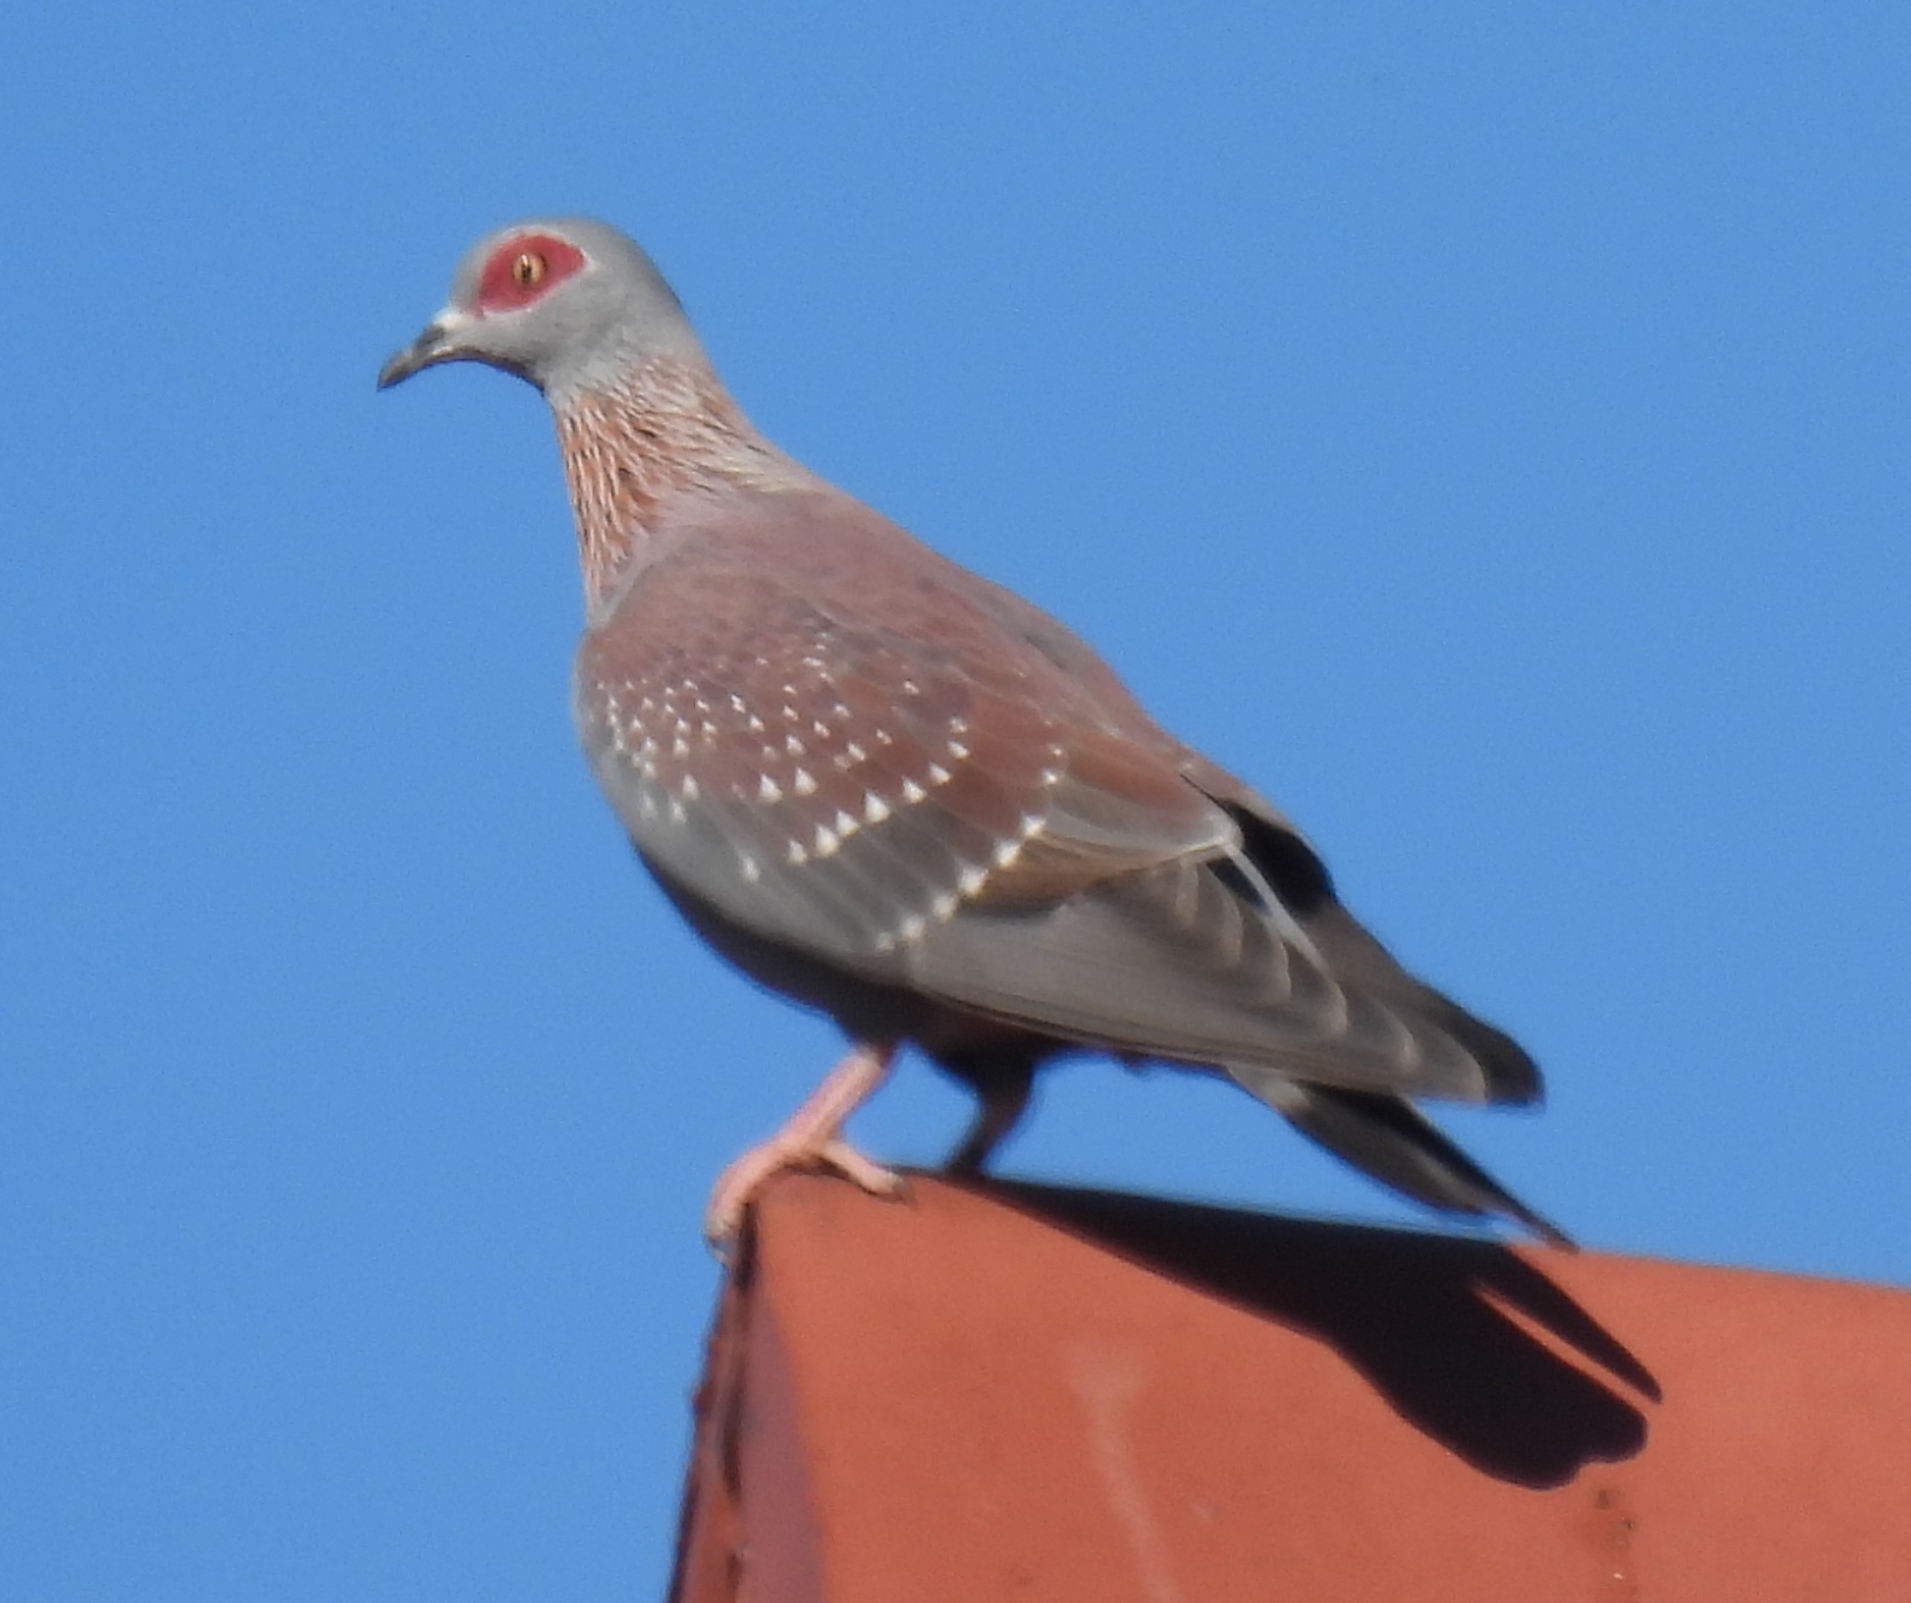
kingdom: Animalia
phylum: Chordata
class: Aves
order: Columbiformes
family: Columbidae
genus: Columba
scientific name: Columba guinea
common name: Speckled pigeon
